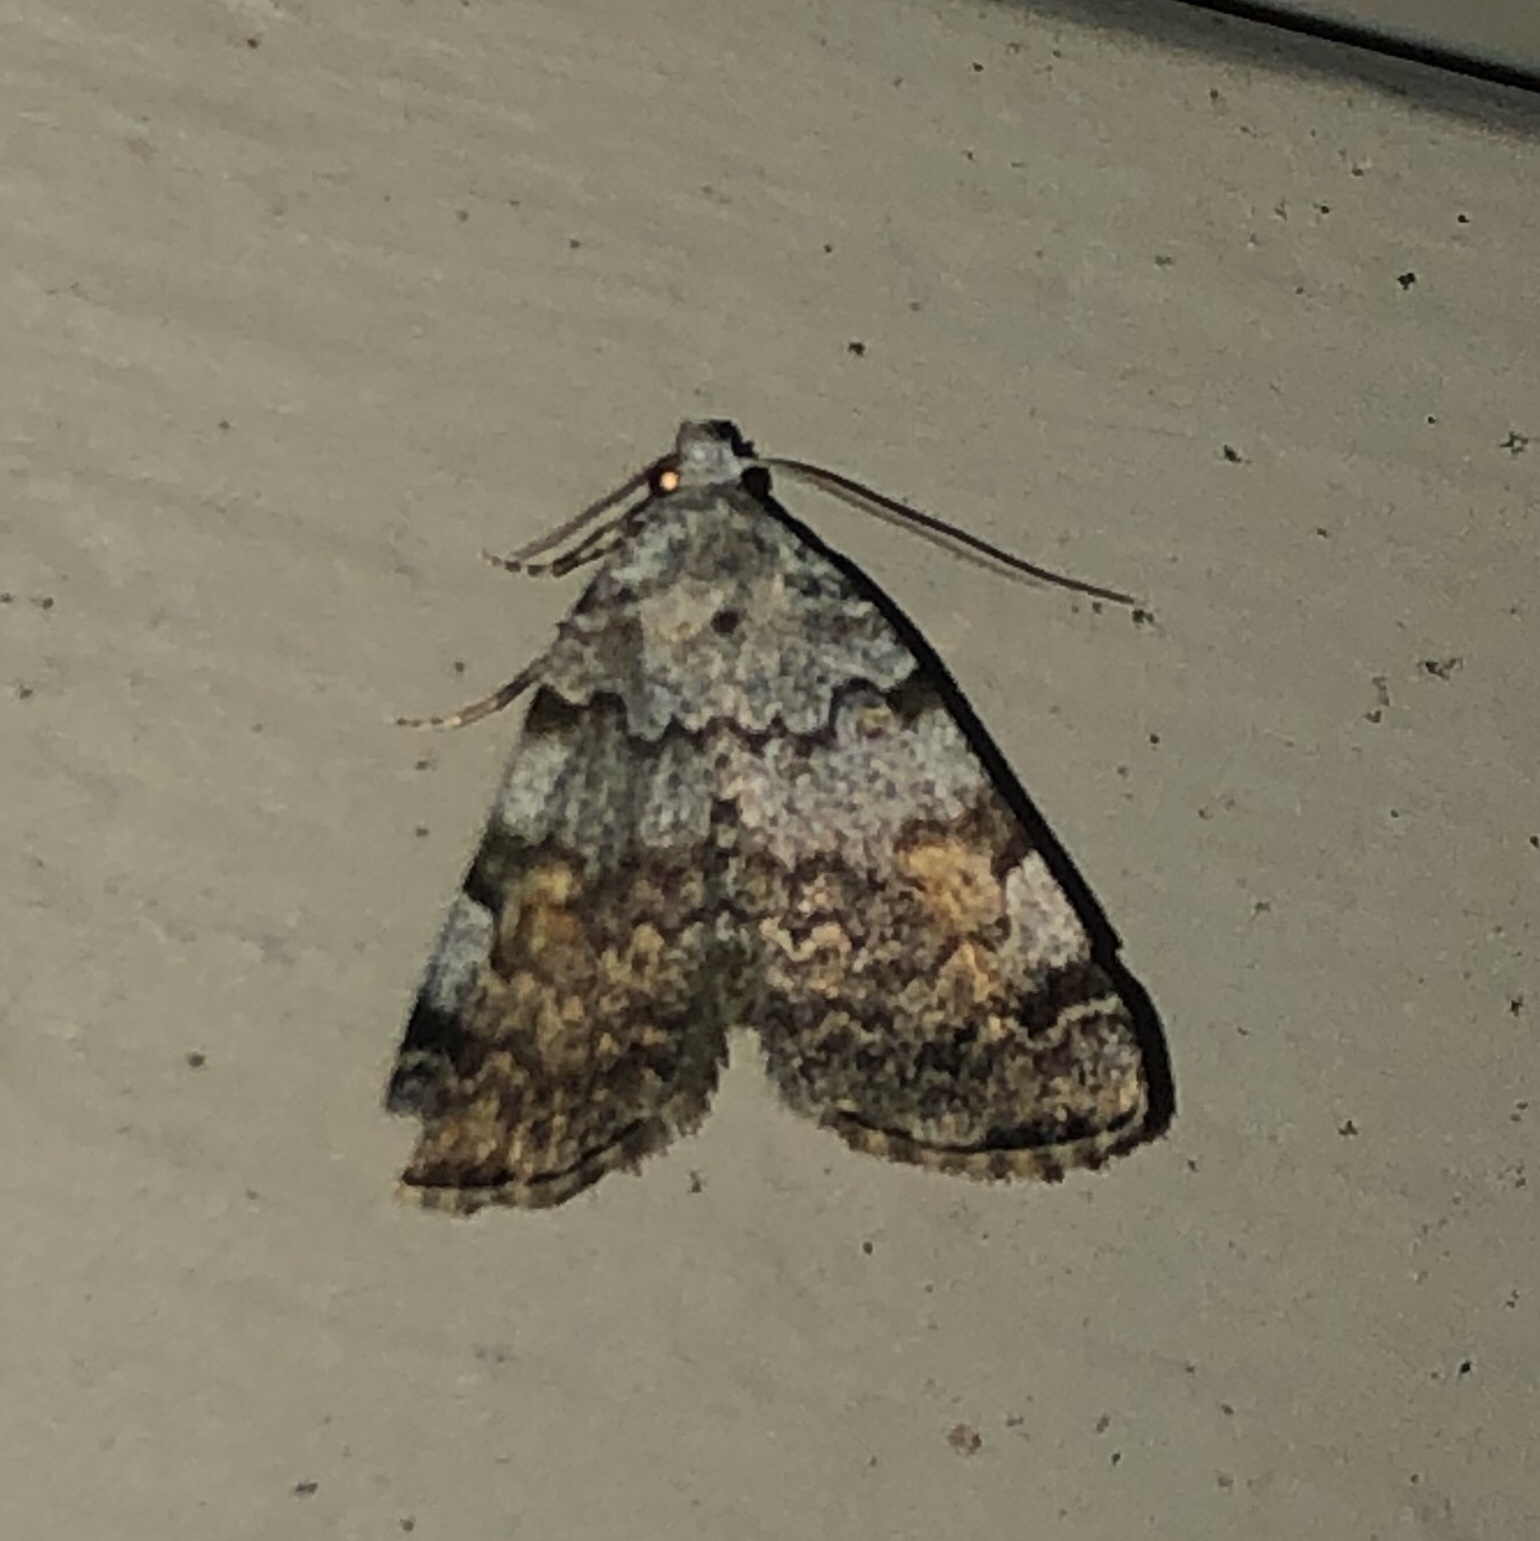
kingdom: Animalia
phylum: Arthropoda
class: Insecta
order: Lepidoptera
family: Erebidae
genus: Idia
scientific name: Idia americalis
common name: American idia moth
